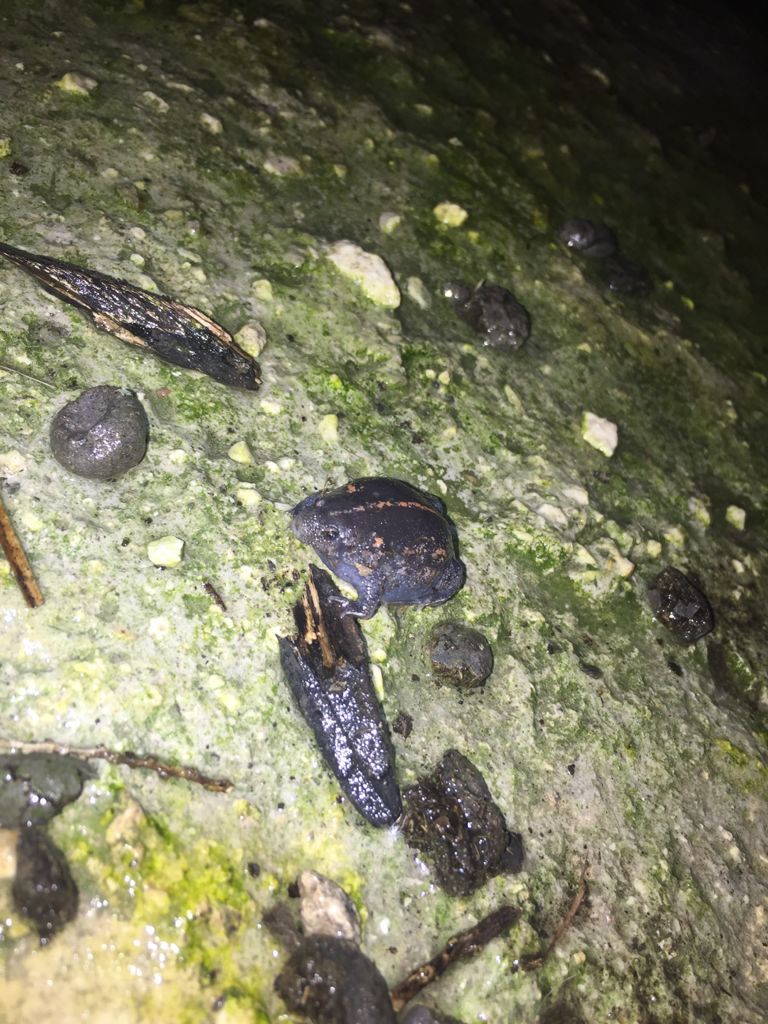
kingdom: Animalia
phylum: Chordata
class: Amphibia
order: Anura
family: Rhinophrynidae
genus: Rhinophrynus
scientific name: Rhinophrynus dorsalis
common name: Mexican burrowing toad
